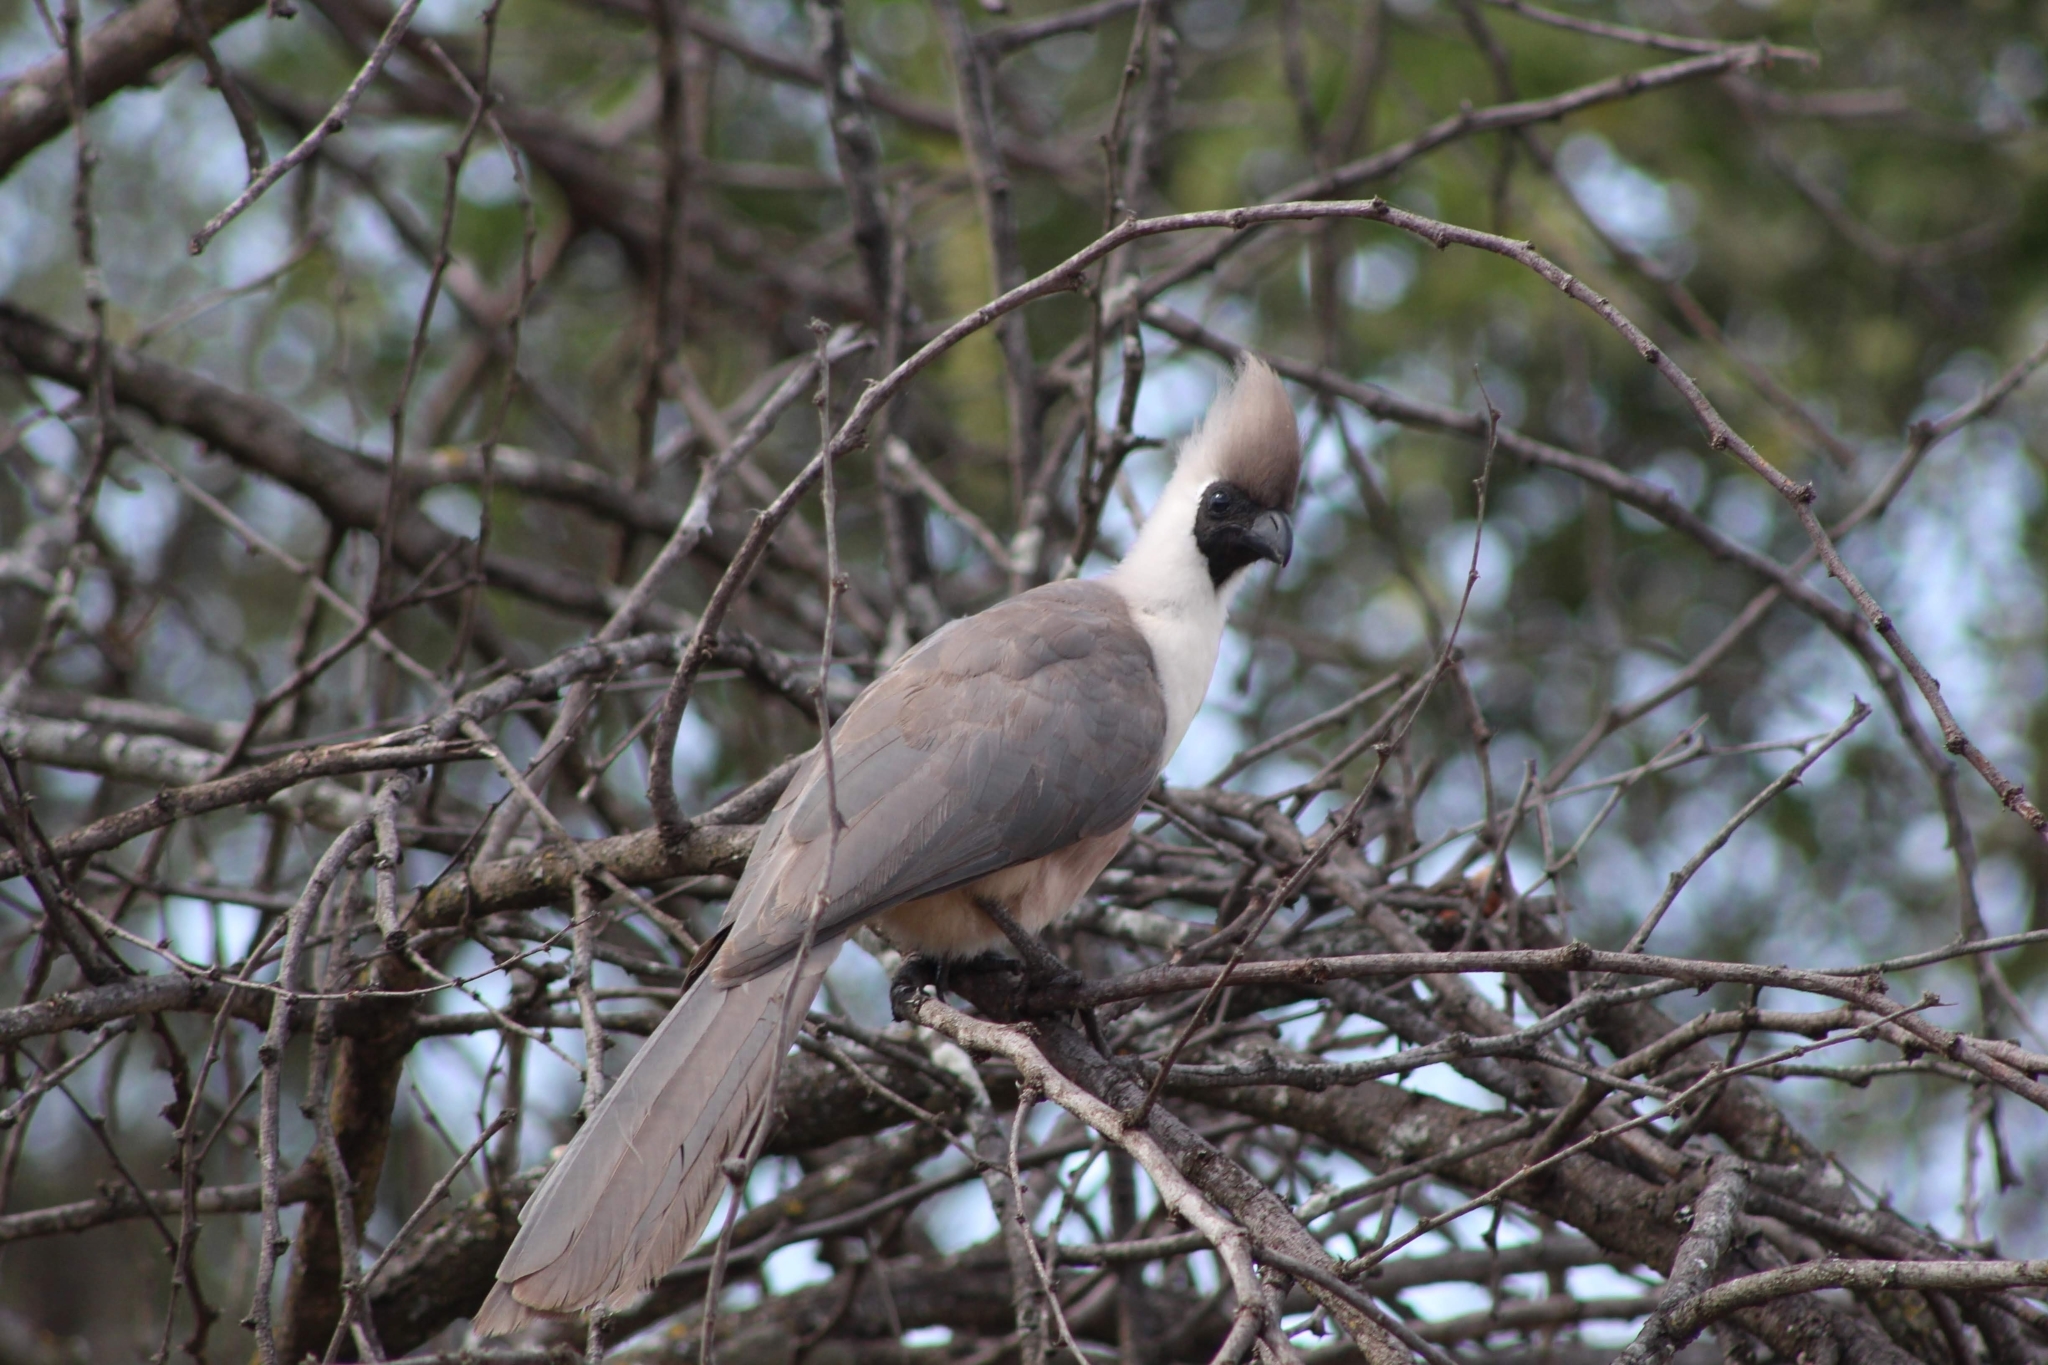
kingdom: Animalia
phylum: Chordata
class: Aves
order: Musophagiformes
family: Musophagidae
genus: Corythaixoides
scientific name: Corythaixoides personatus
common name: Bare-faced go-away-bird
